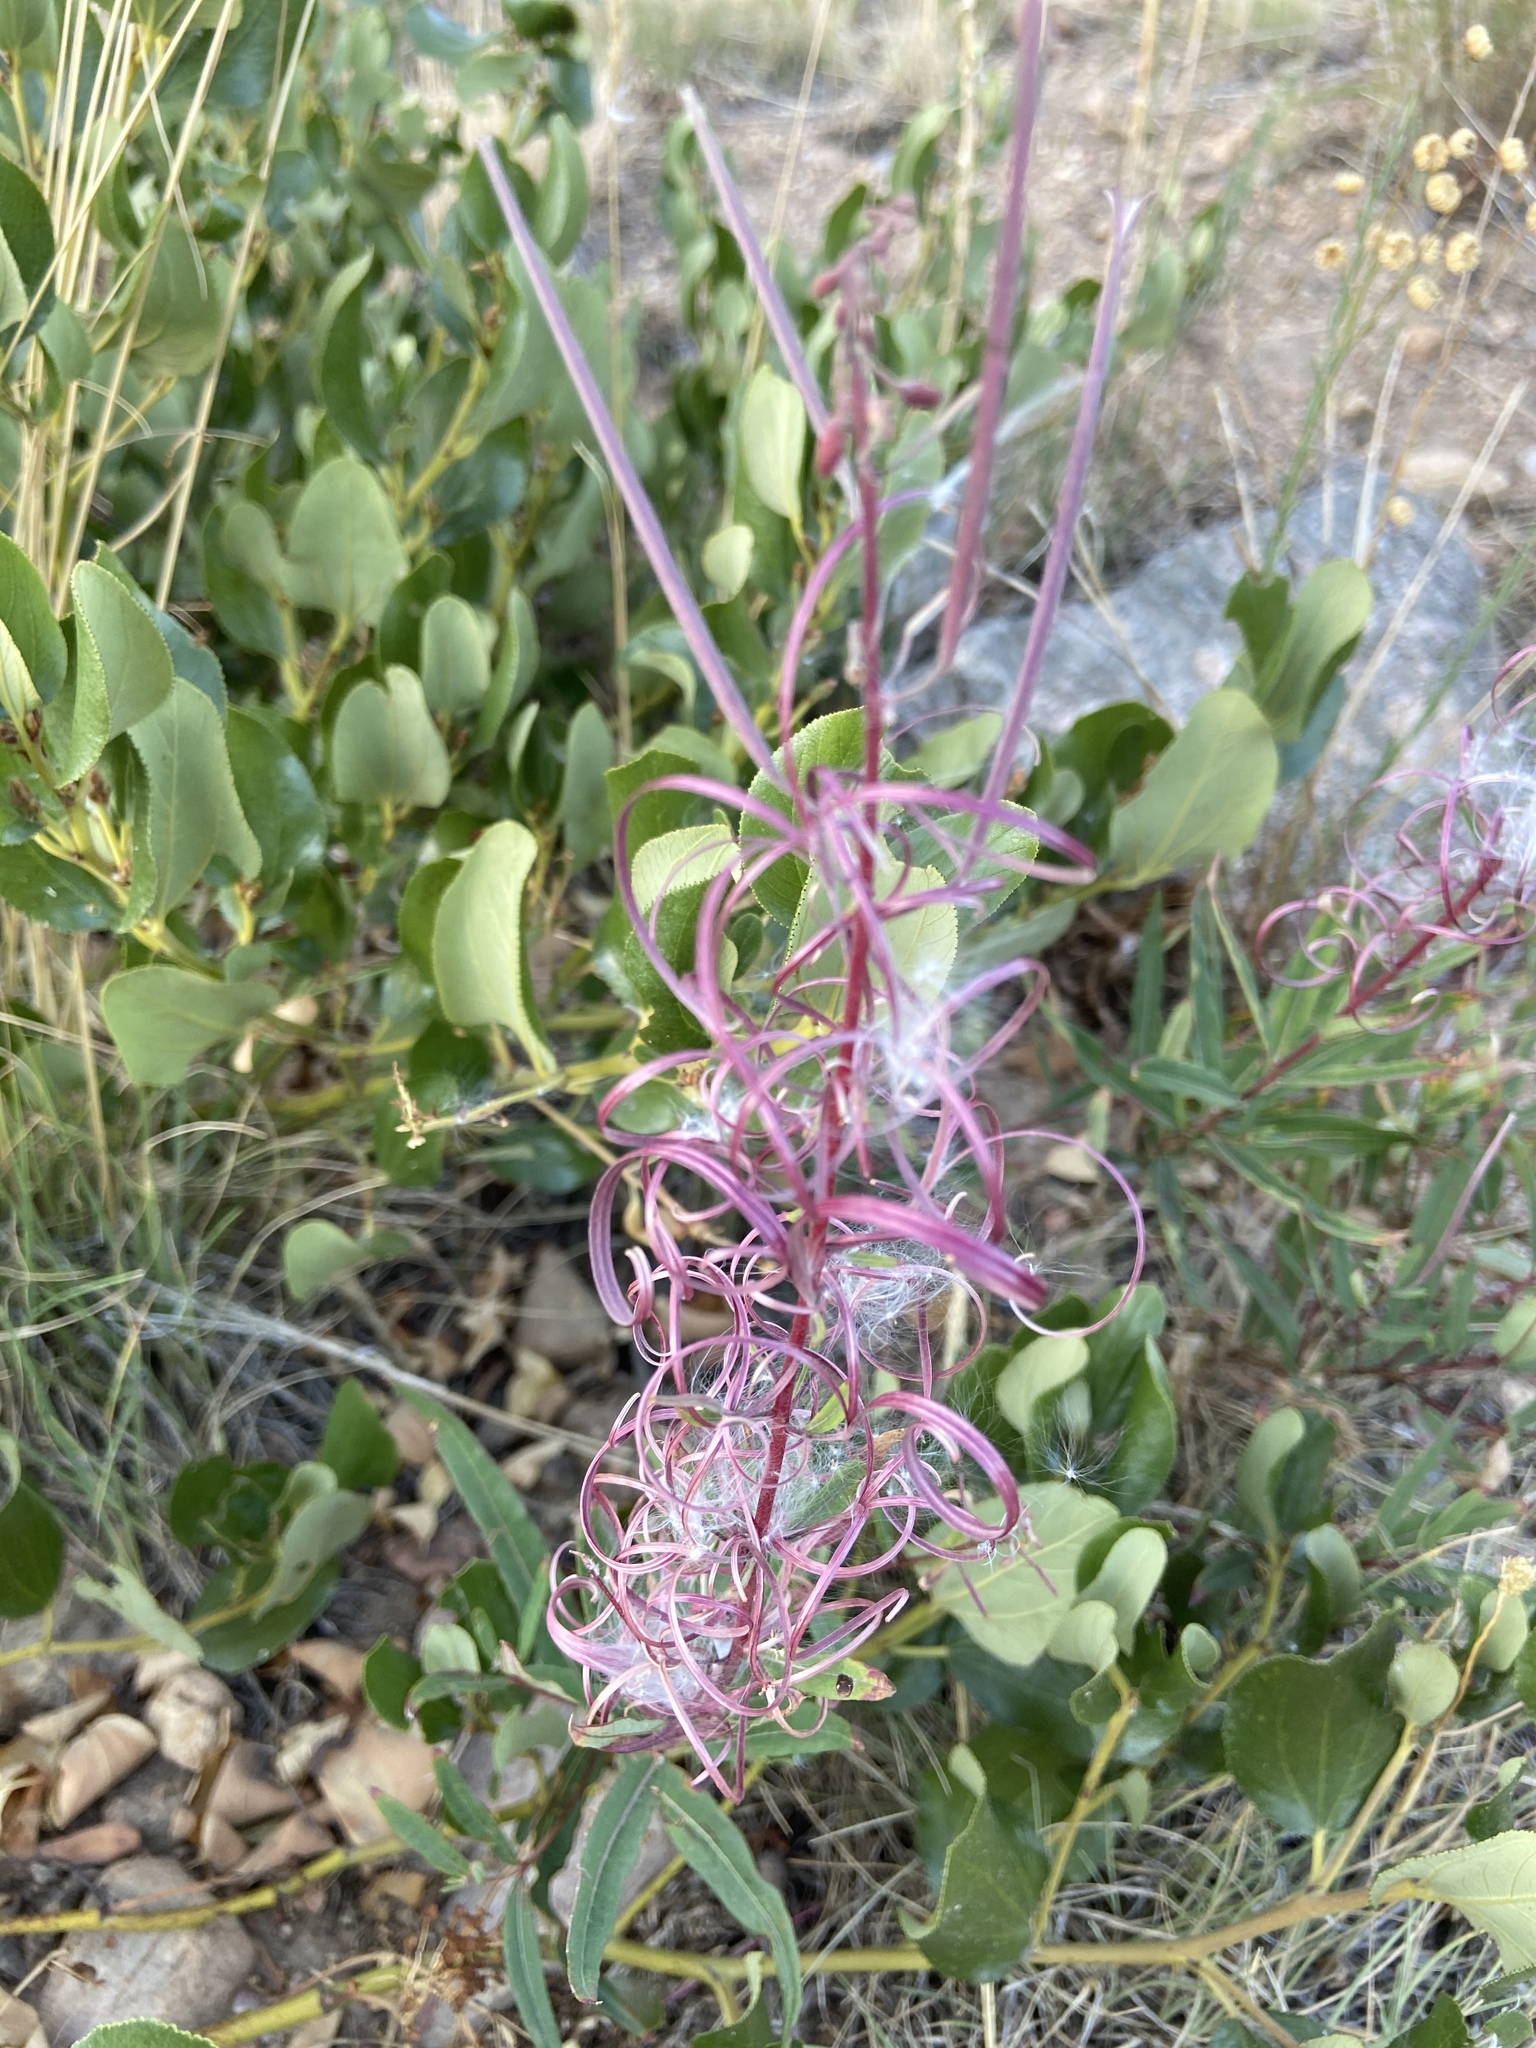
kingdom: Plantae
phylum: Tracheophyta
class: Magnoliopsida
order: Myrtales
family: Onagraceae
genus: Chamaenerion
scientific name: Chamaenerion angustifolium
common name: Fireweed
